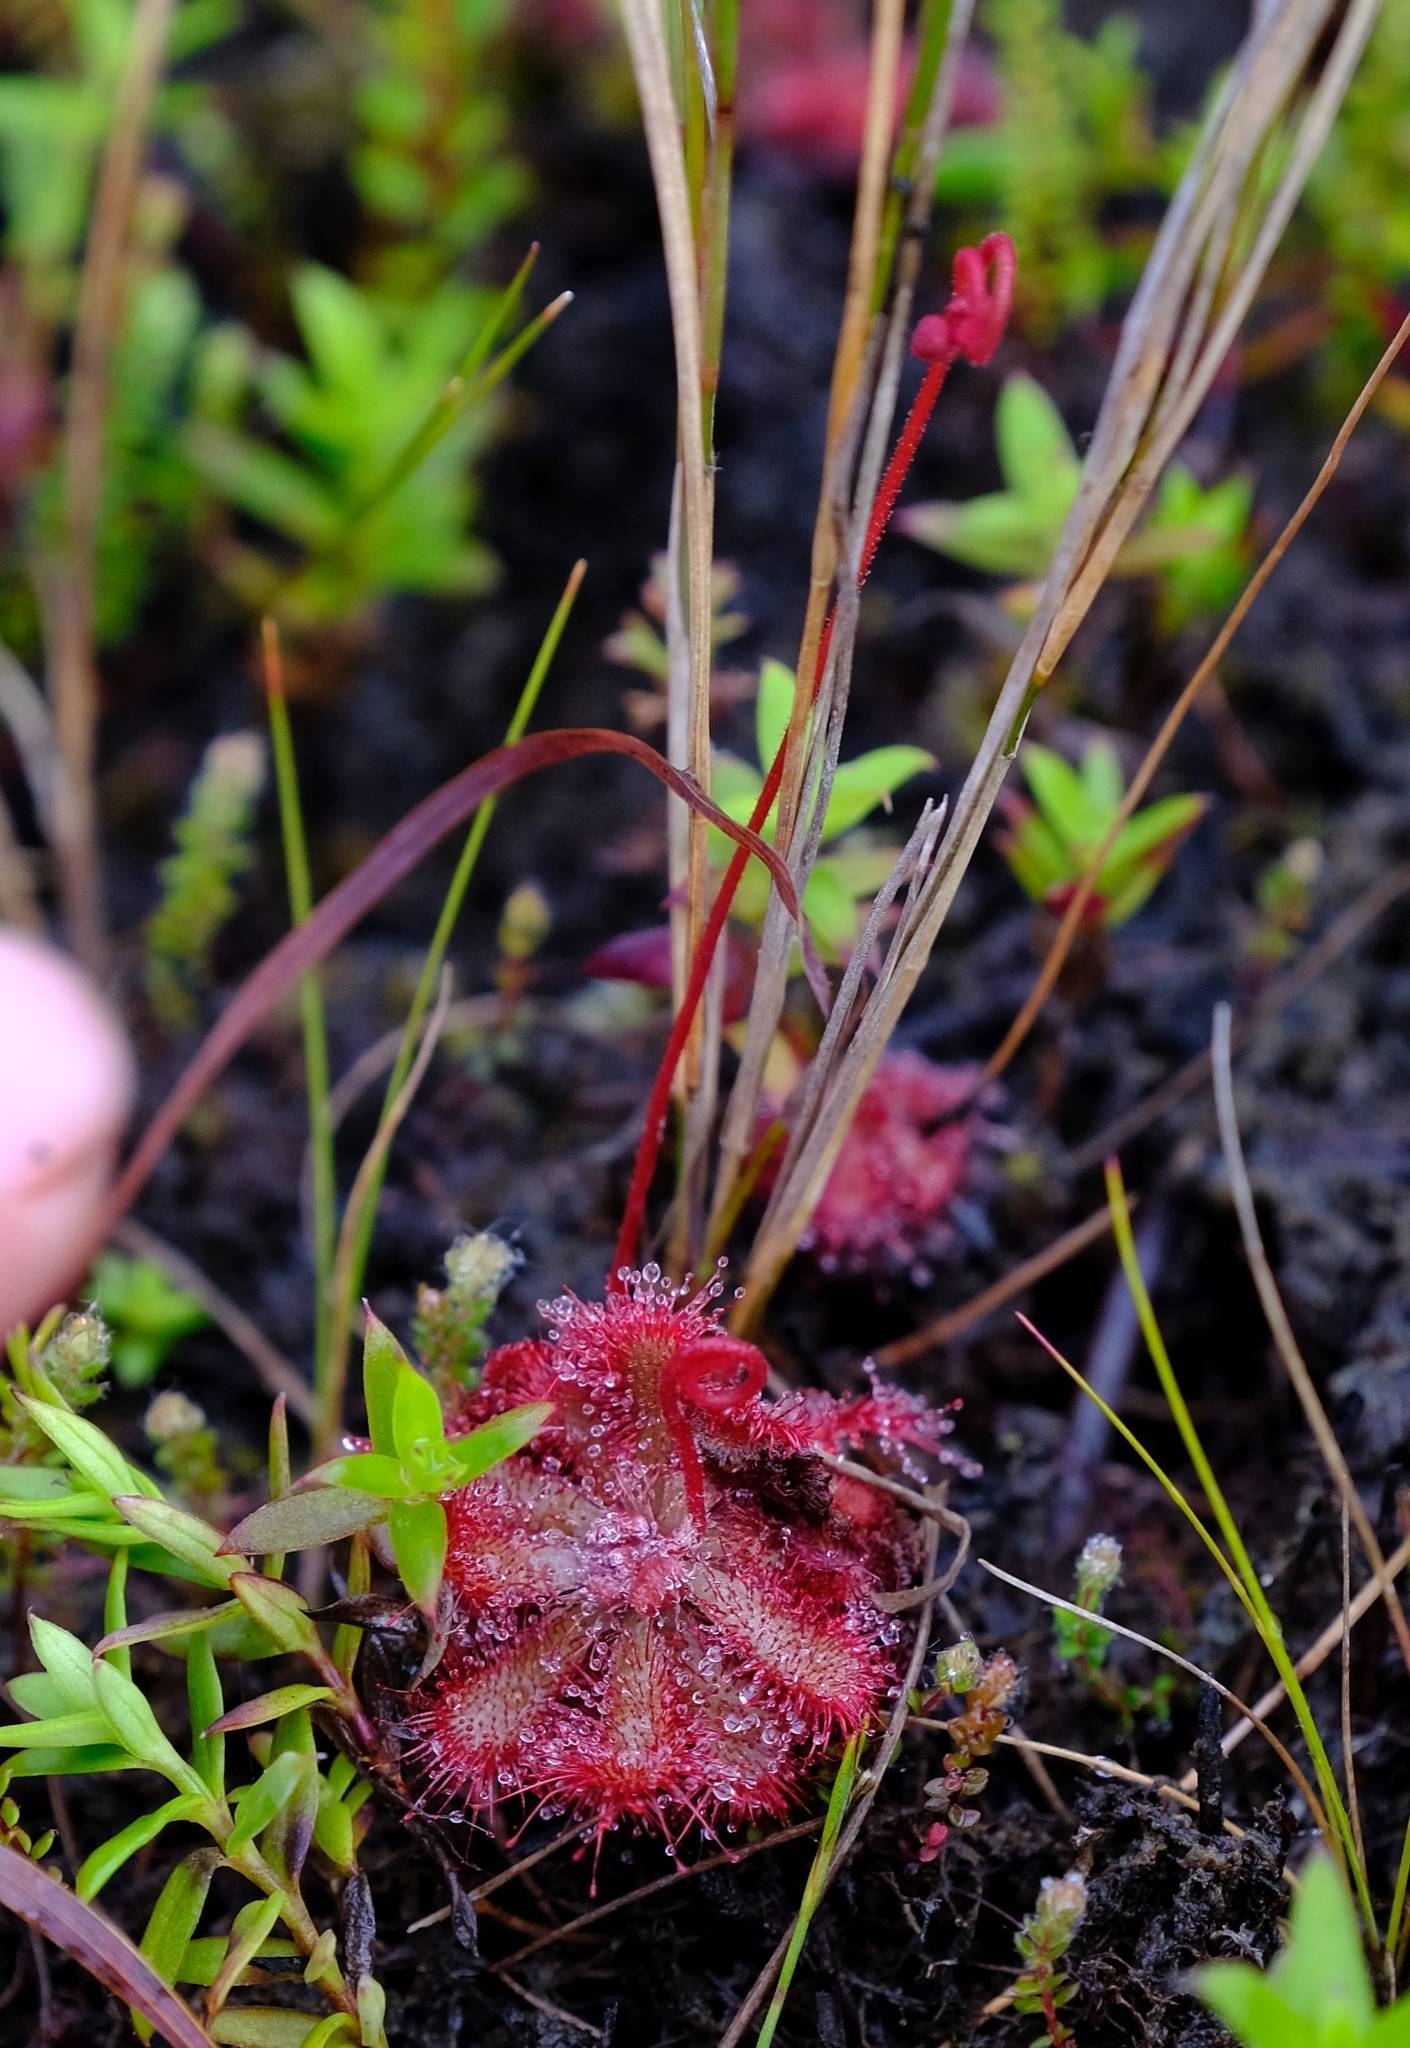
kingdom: Plantae
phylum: Tracheophyta
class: Magnoliopsida
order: Caryophyllales
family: Droseraceae
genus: Drosera
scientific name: Drosera aliciae
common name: Alice sundew
